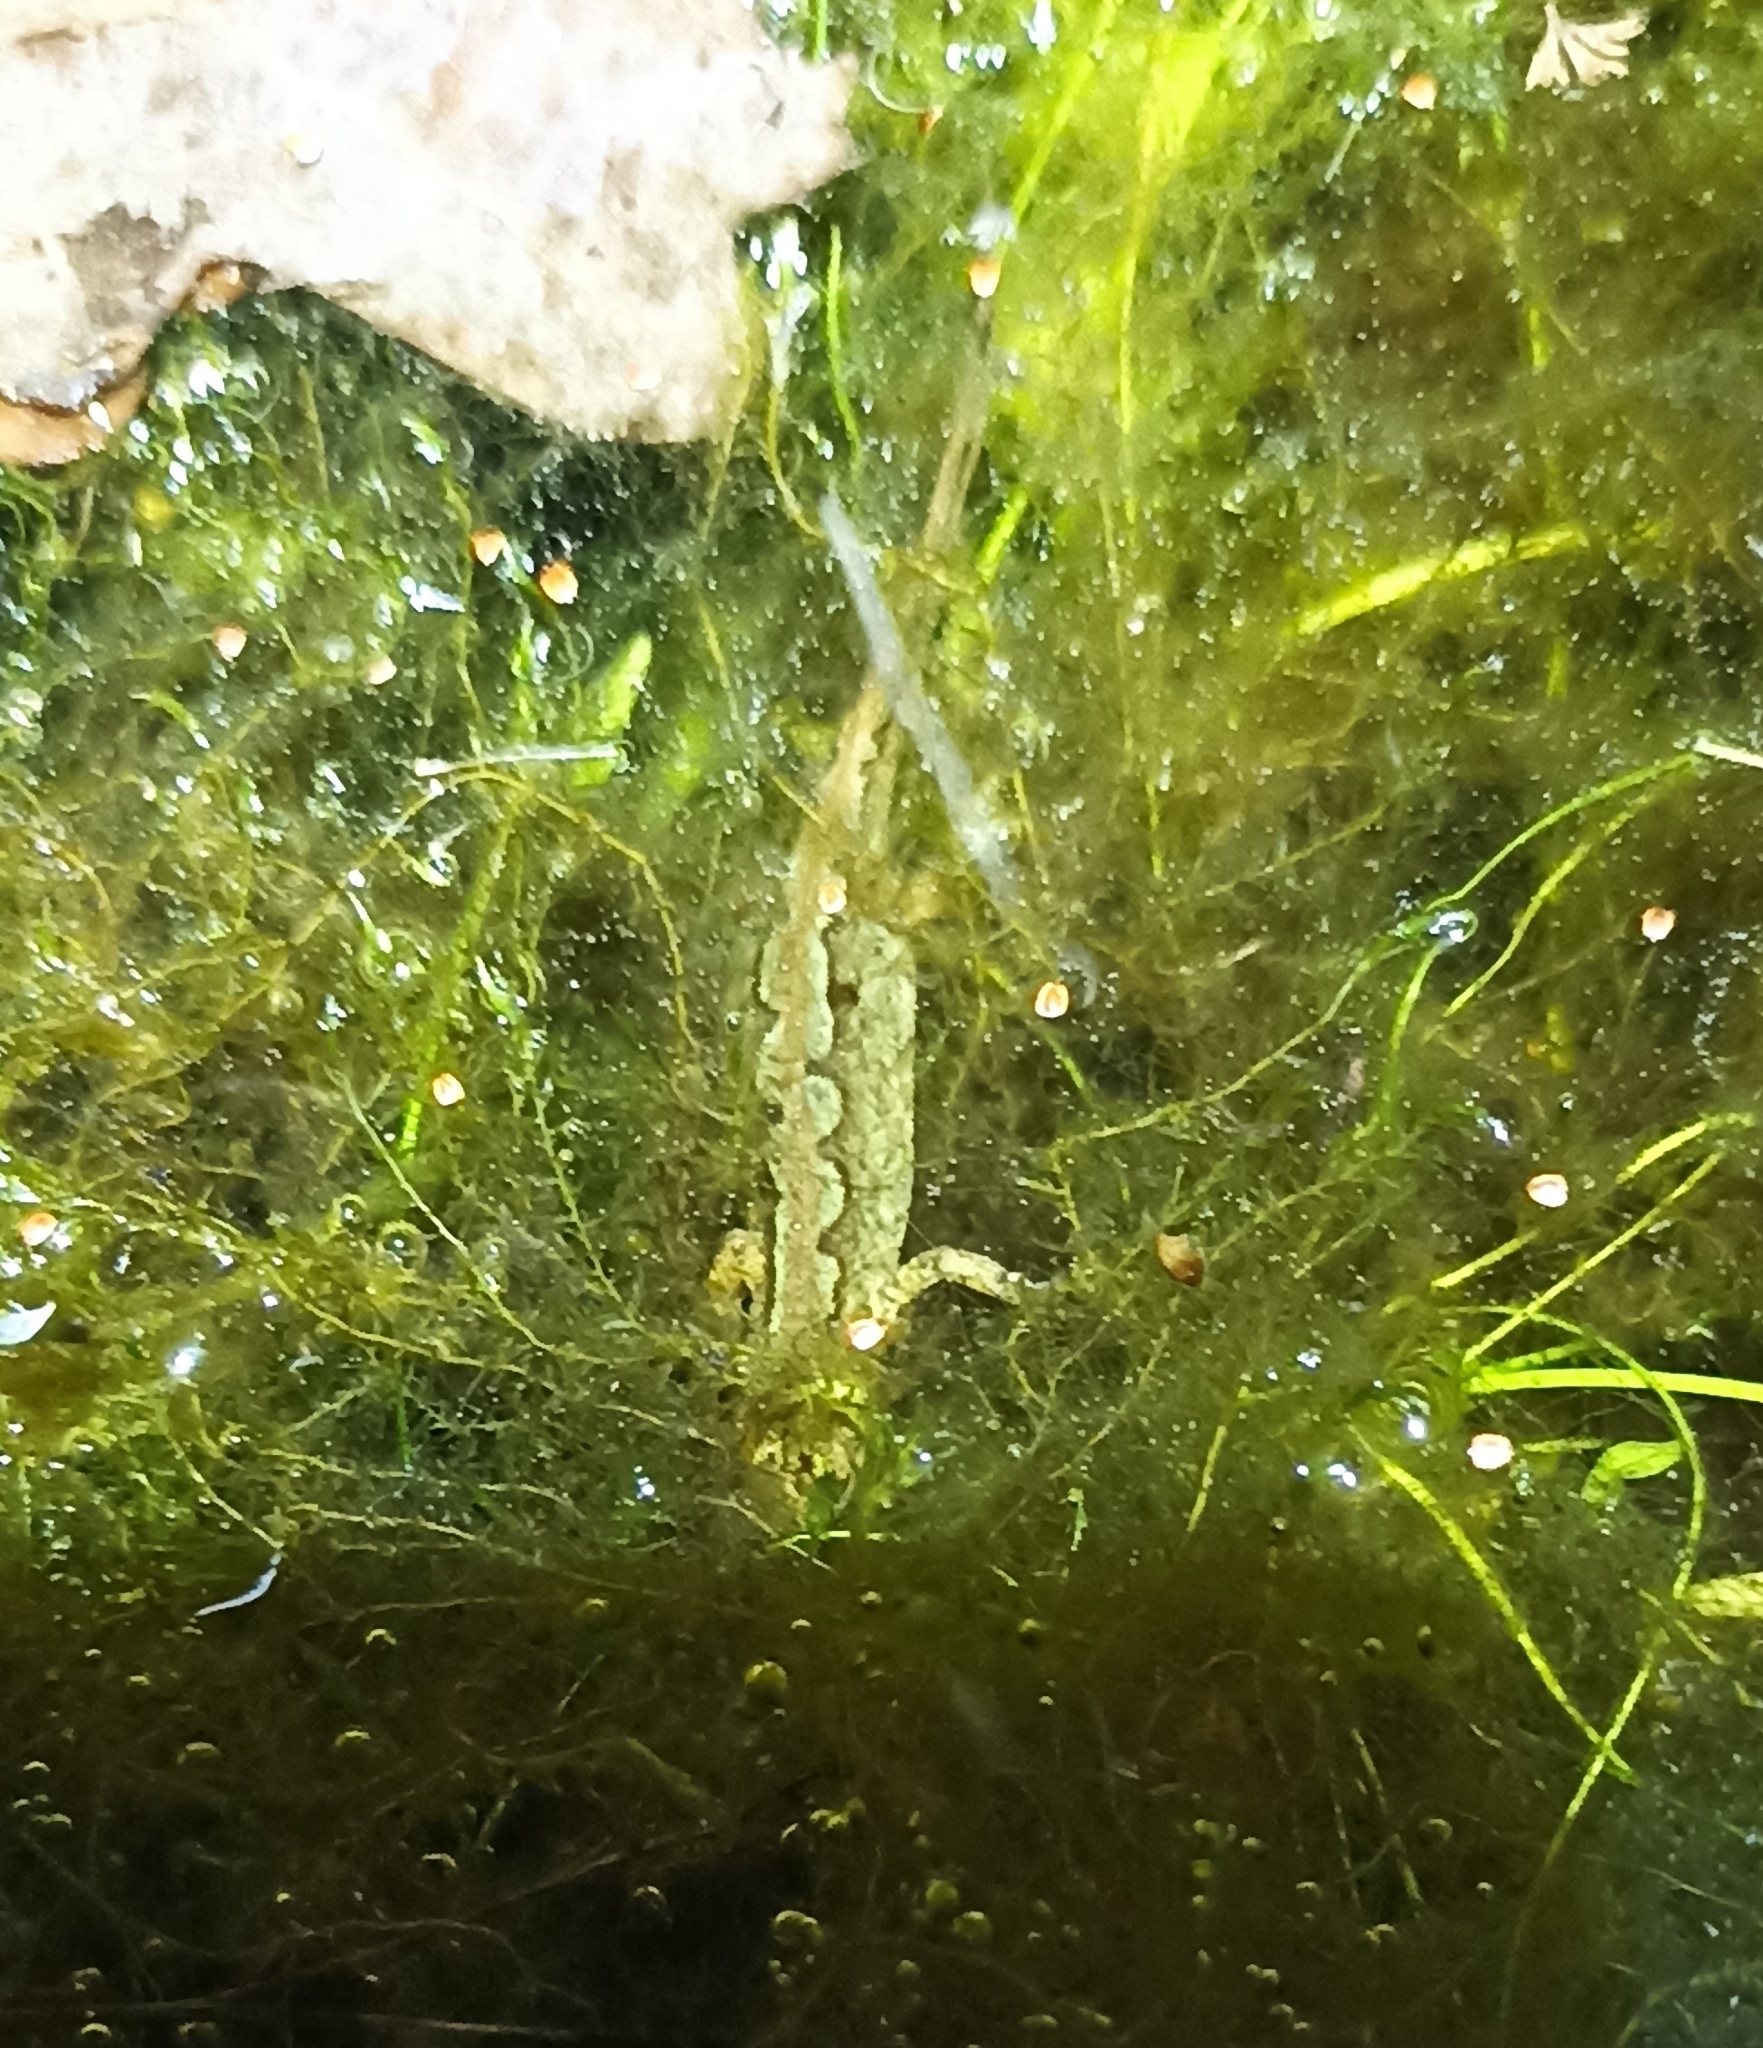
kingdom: Animalia
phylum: Chordata
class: Amphibia
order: Caudata
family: Salamandridae
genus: Lissotriton
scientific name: Lissotriton helveticus
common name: Palmate newt
